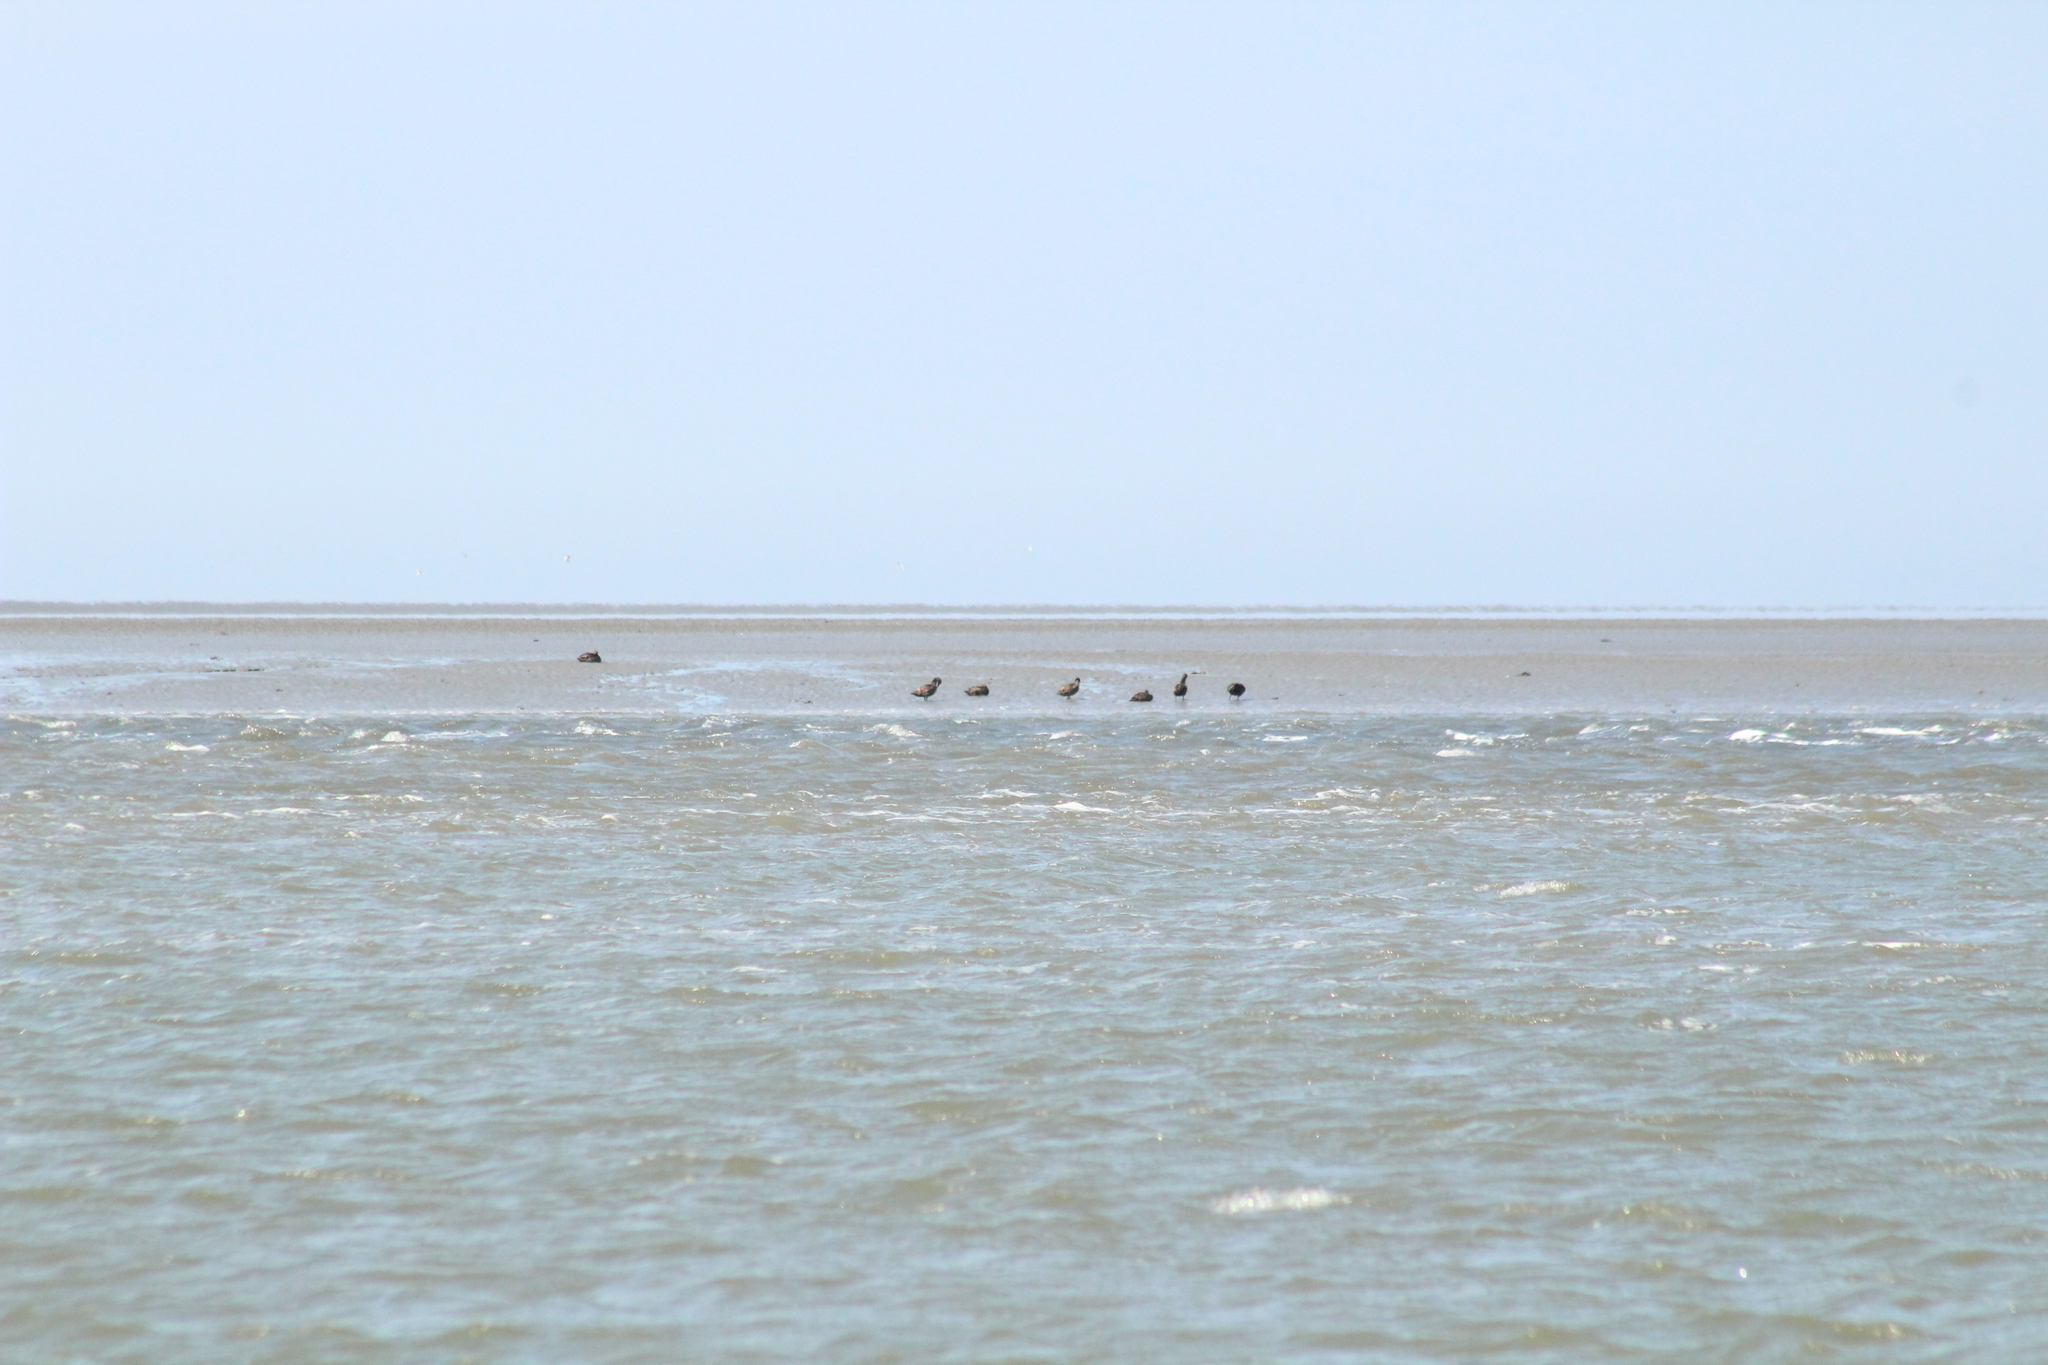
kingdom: Animalia
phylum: Chordata
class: Aves
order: Anseriformes
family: Anatidae
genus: Somateria
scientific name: Somateria mollissima
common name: Common eider
